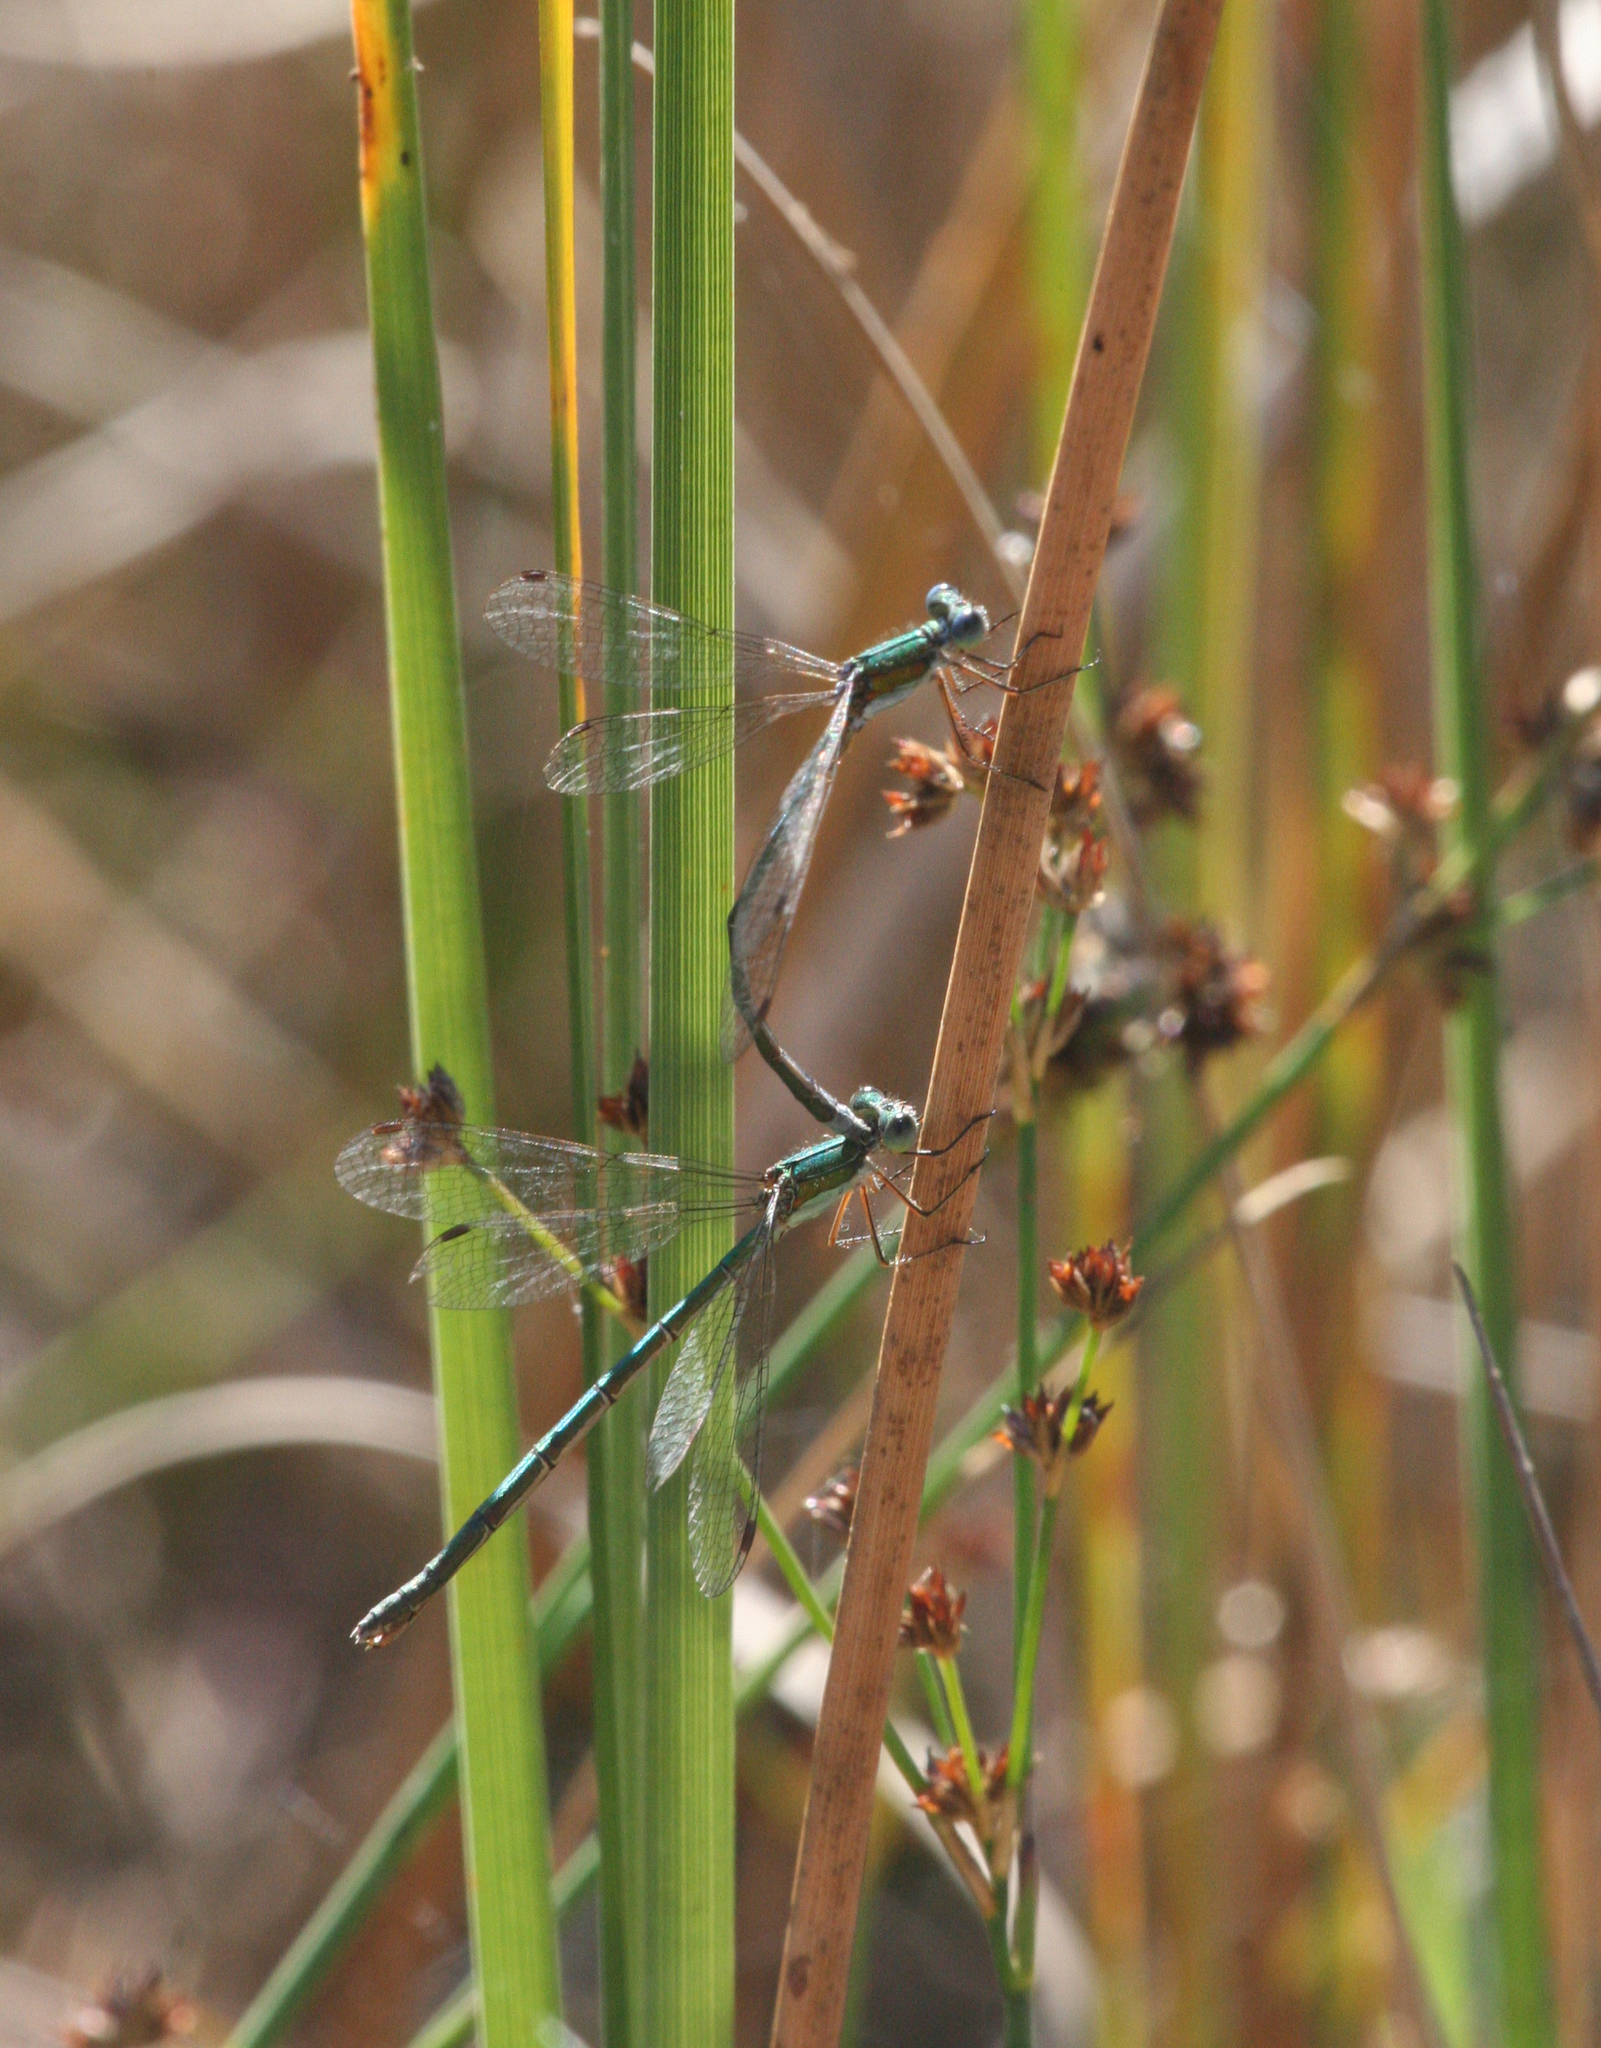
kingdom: Animalia
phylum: Arthropoda
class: Insecta
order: Odonata
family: Lestidae
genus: Lestes
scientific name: Lestes virens
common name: Small emerald spreadwing
